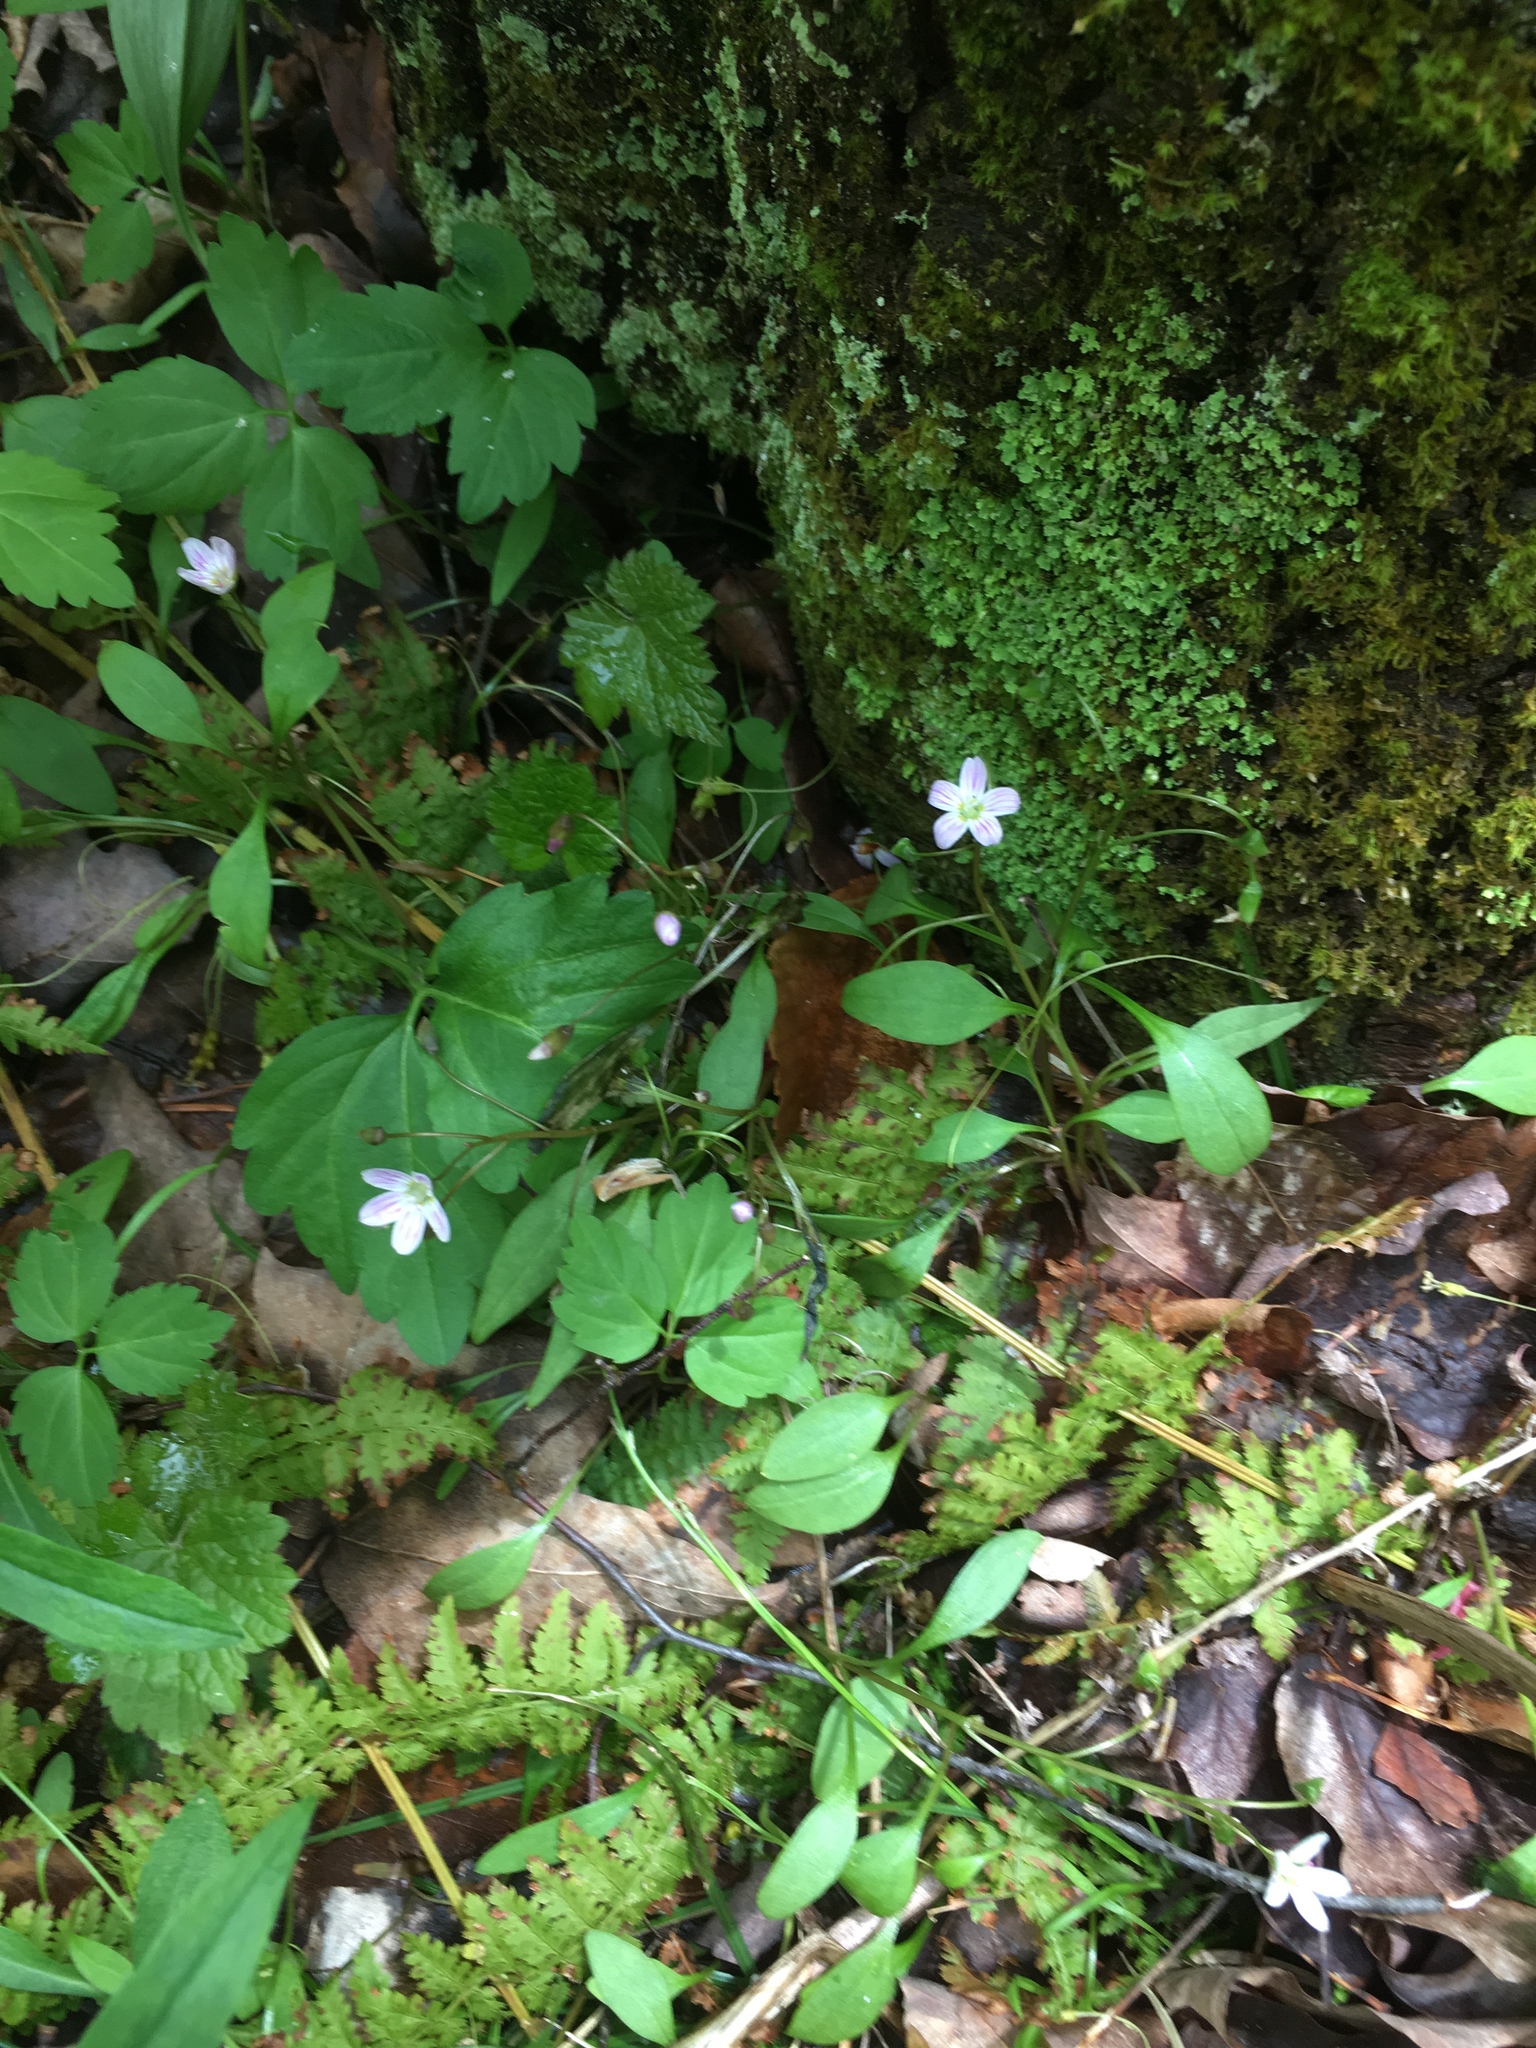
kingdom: Plantae
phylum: Tracheophyta
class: Magnoliopsida
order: Caryophyllales
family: Montiaceae
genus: Claytonia
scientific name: Claytonia caroliniana
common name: Carolina spring beauty
